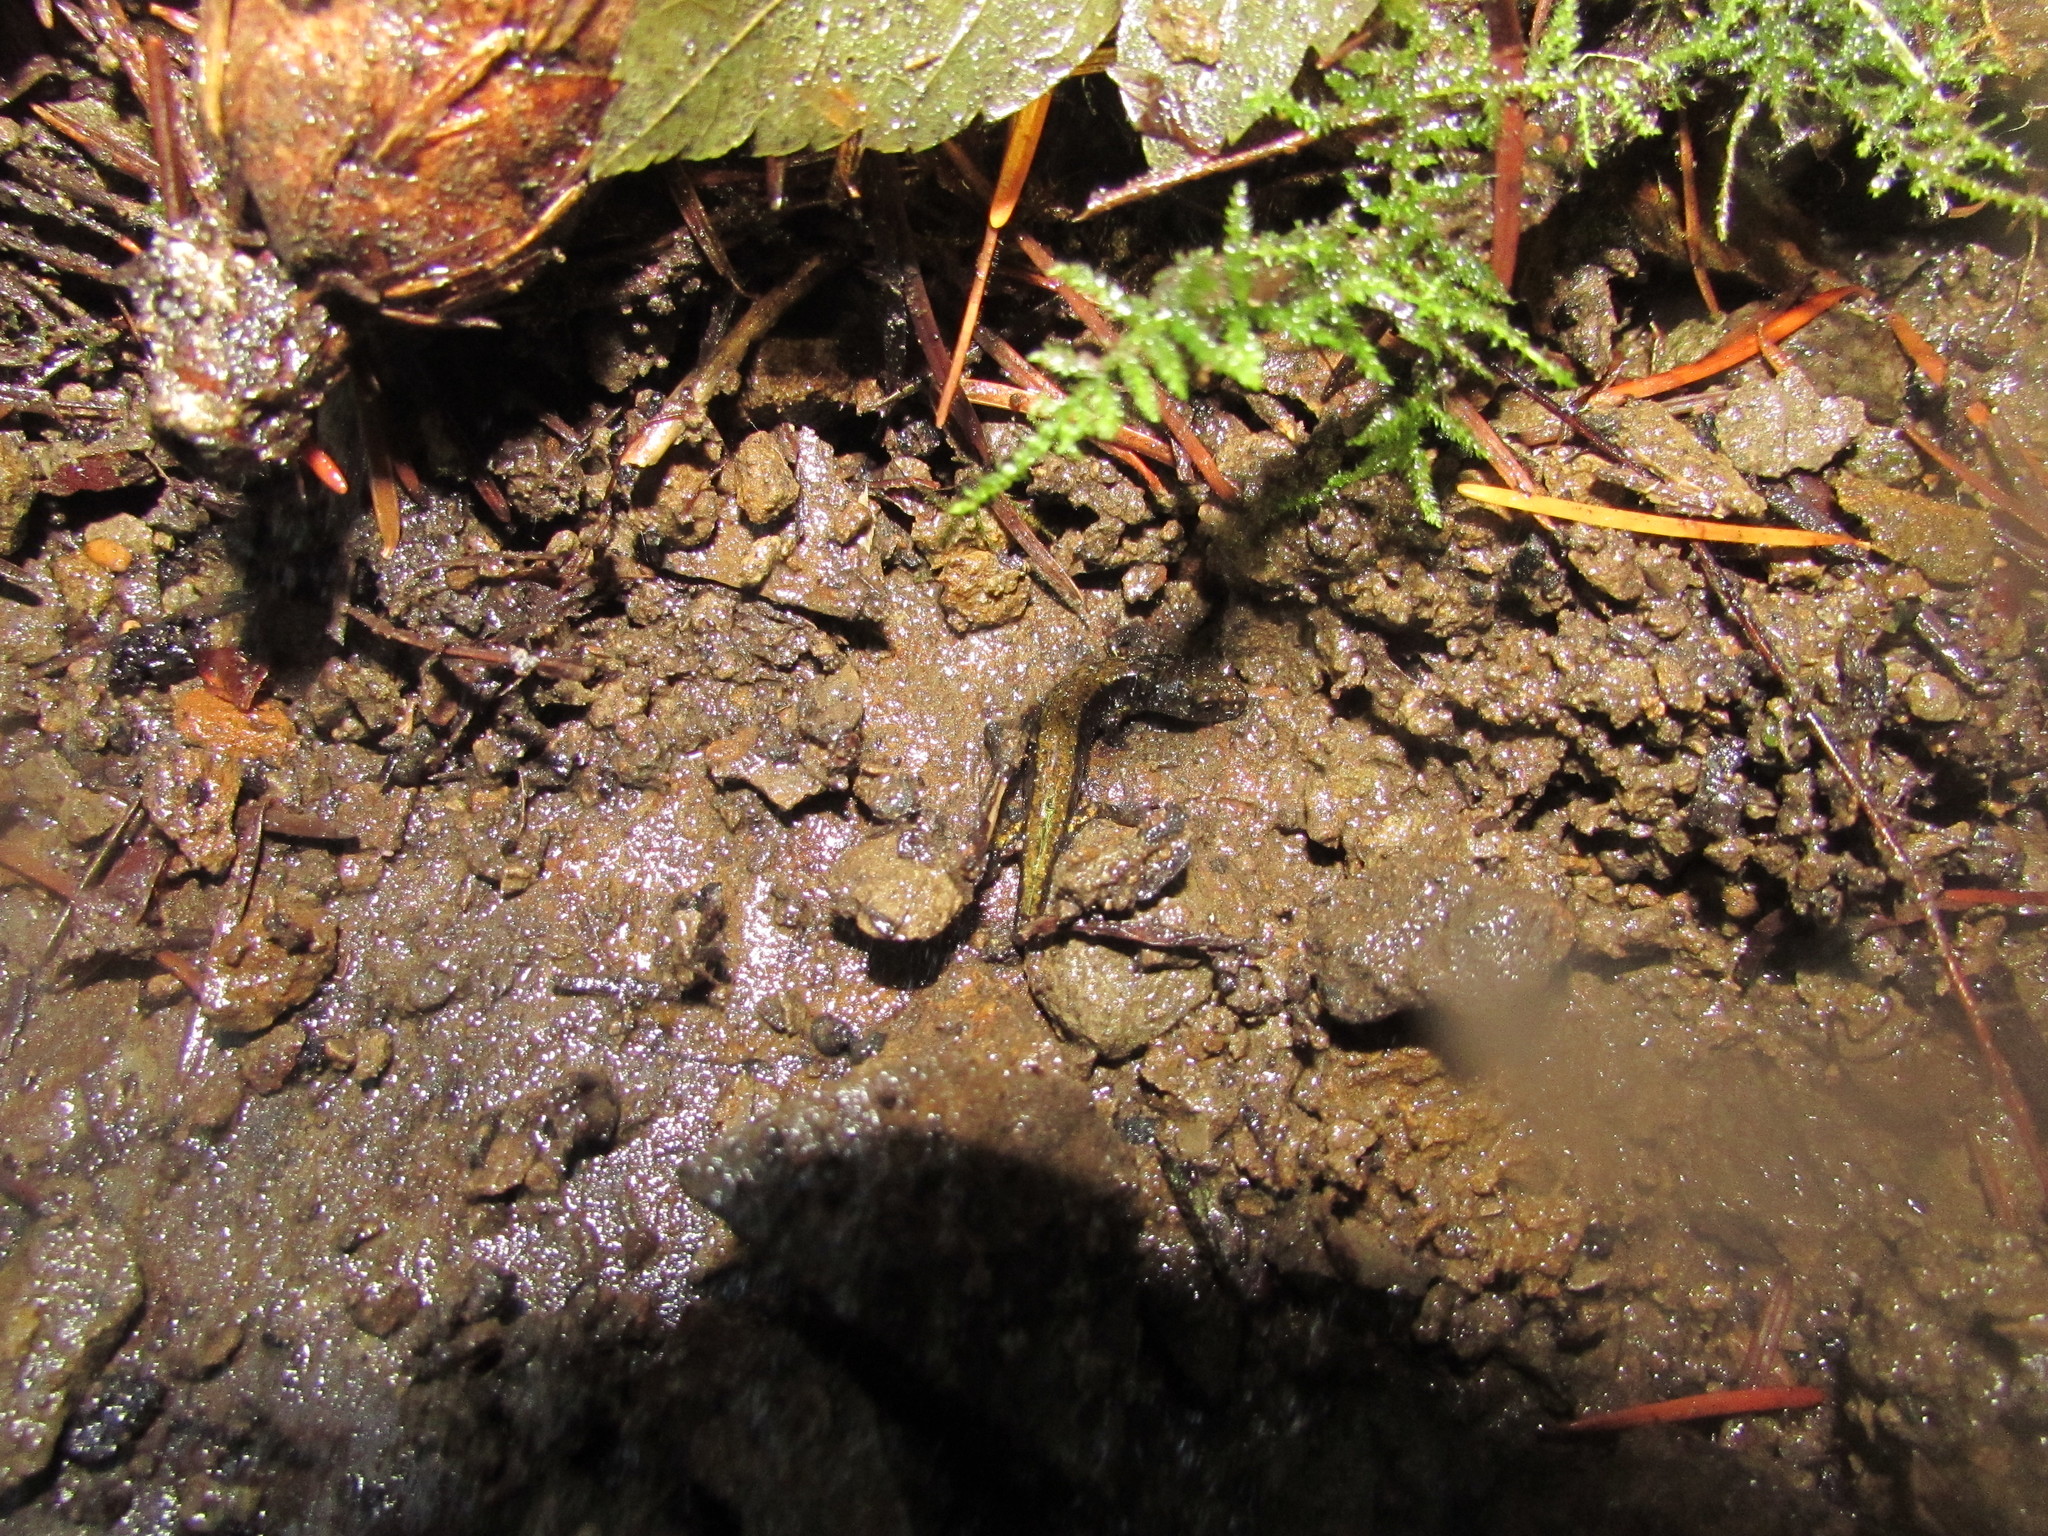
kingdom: Animalia
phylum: Chordata
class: Amphibia
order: Caudata
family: Plethodontidae
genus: Plethodon
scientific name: Plethodon dunni
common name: Dunn's salamander
